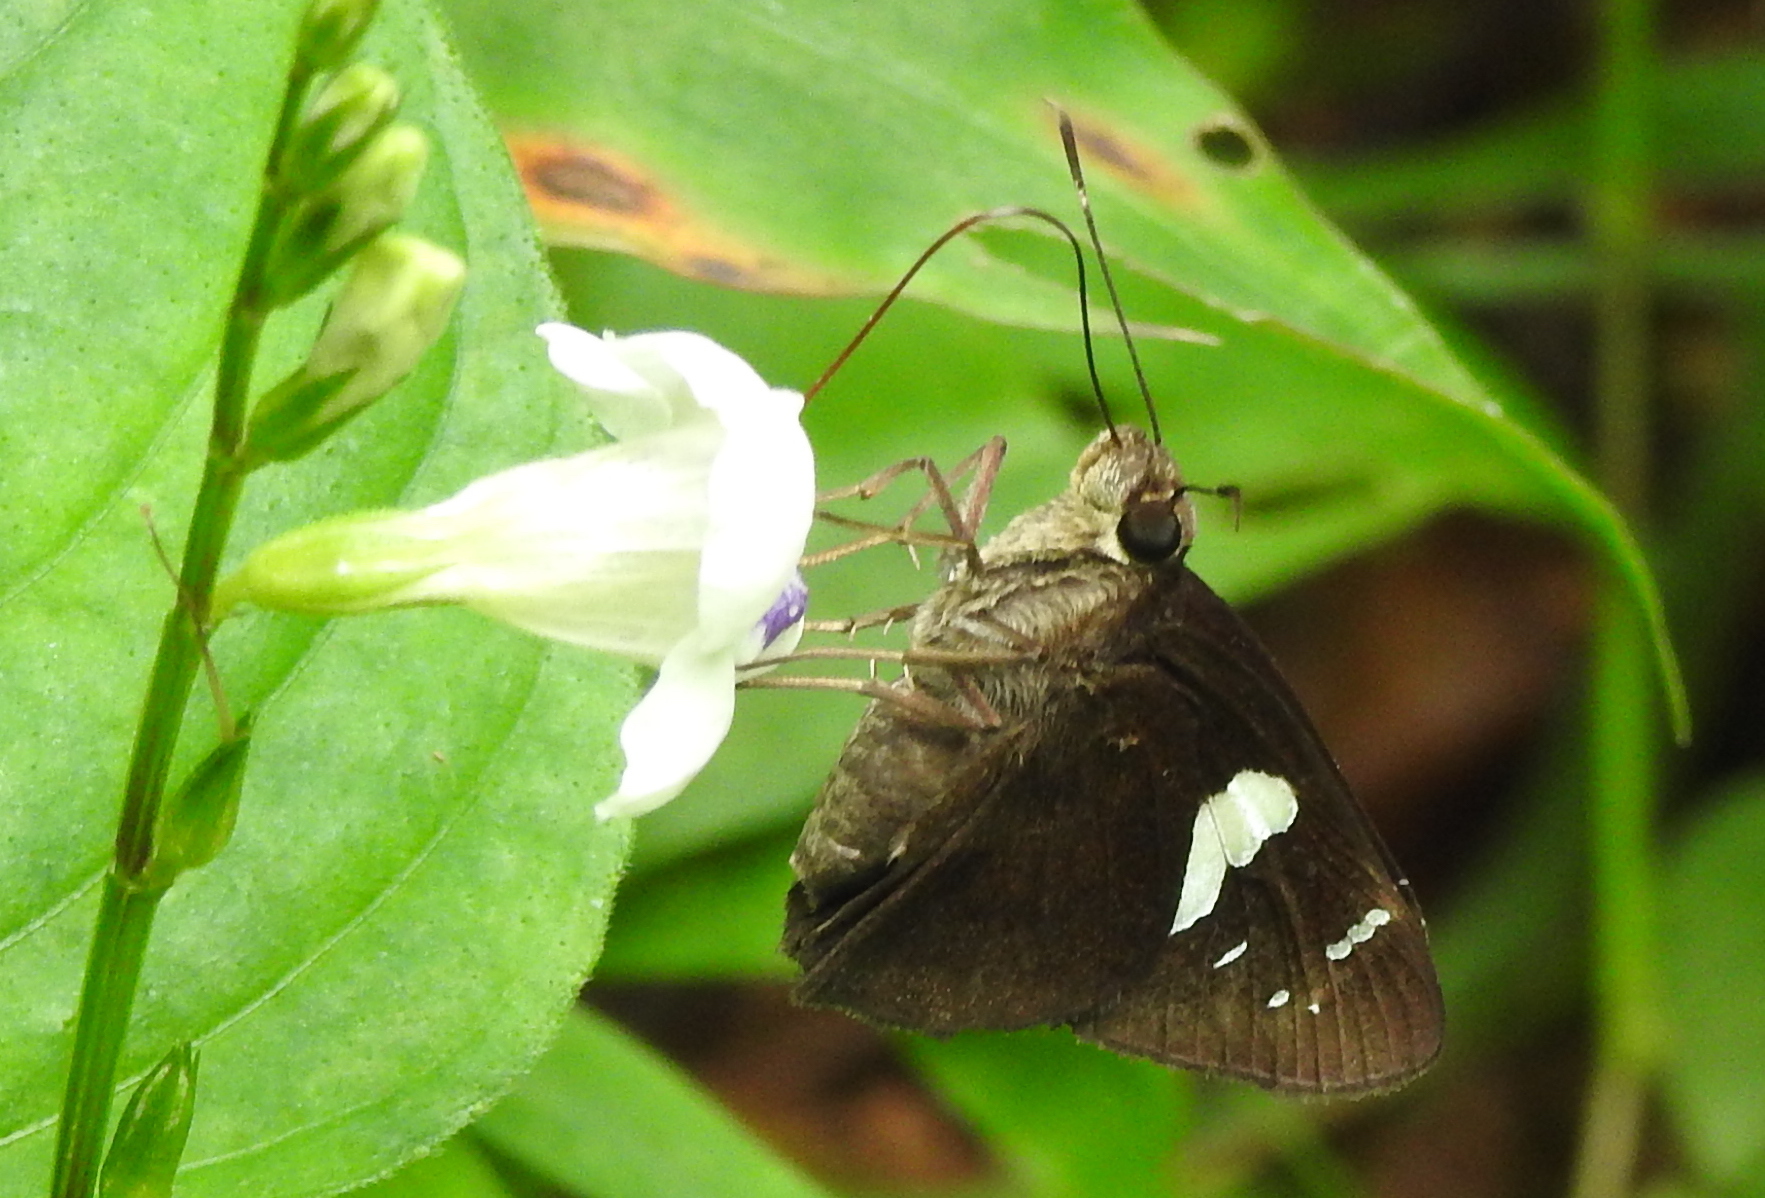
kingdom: Animalia
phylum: Arthropoda
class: Insecta
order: Lepidoptera
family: Hesperiidae
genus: Notocrypta
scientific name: Notocrypta curvifascia
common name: Restricted demon
